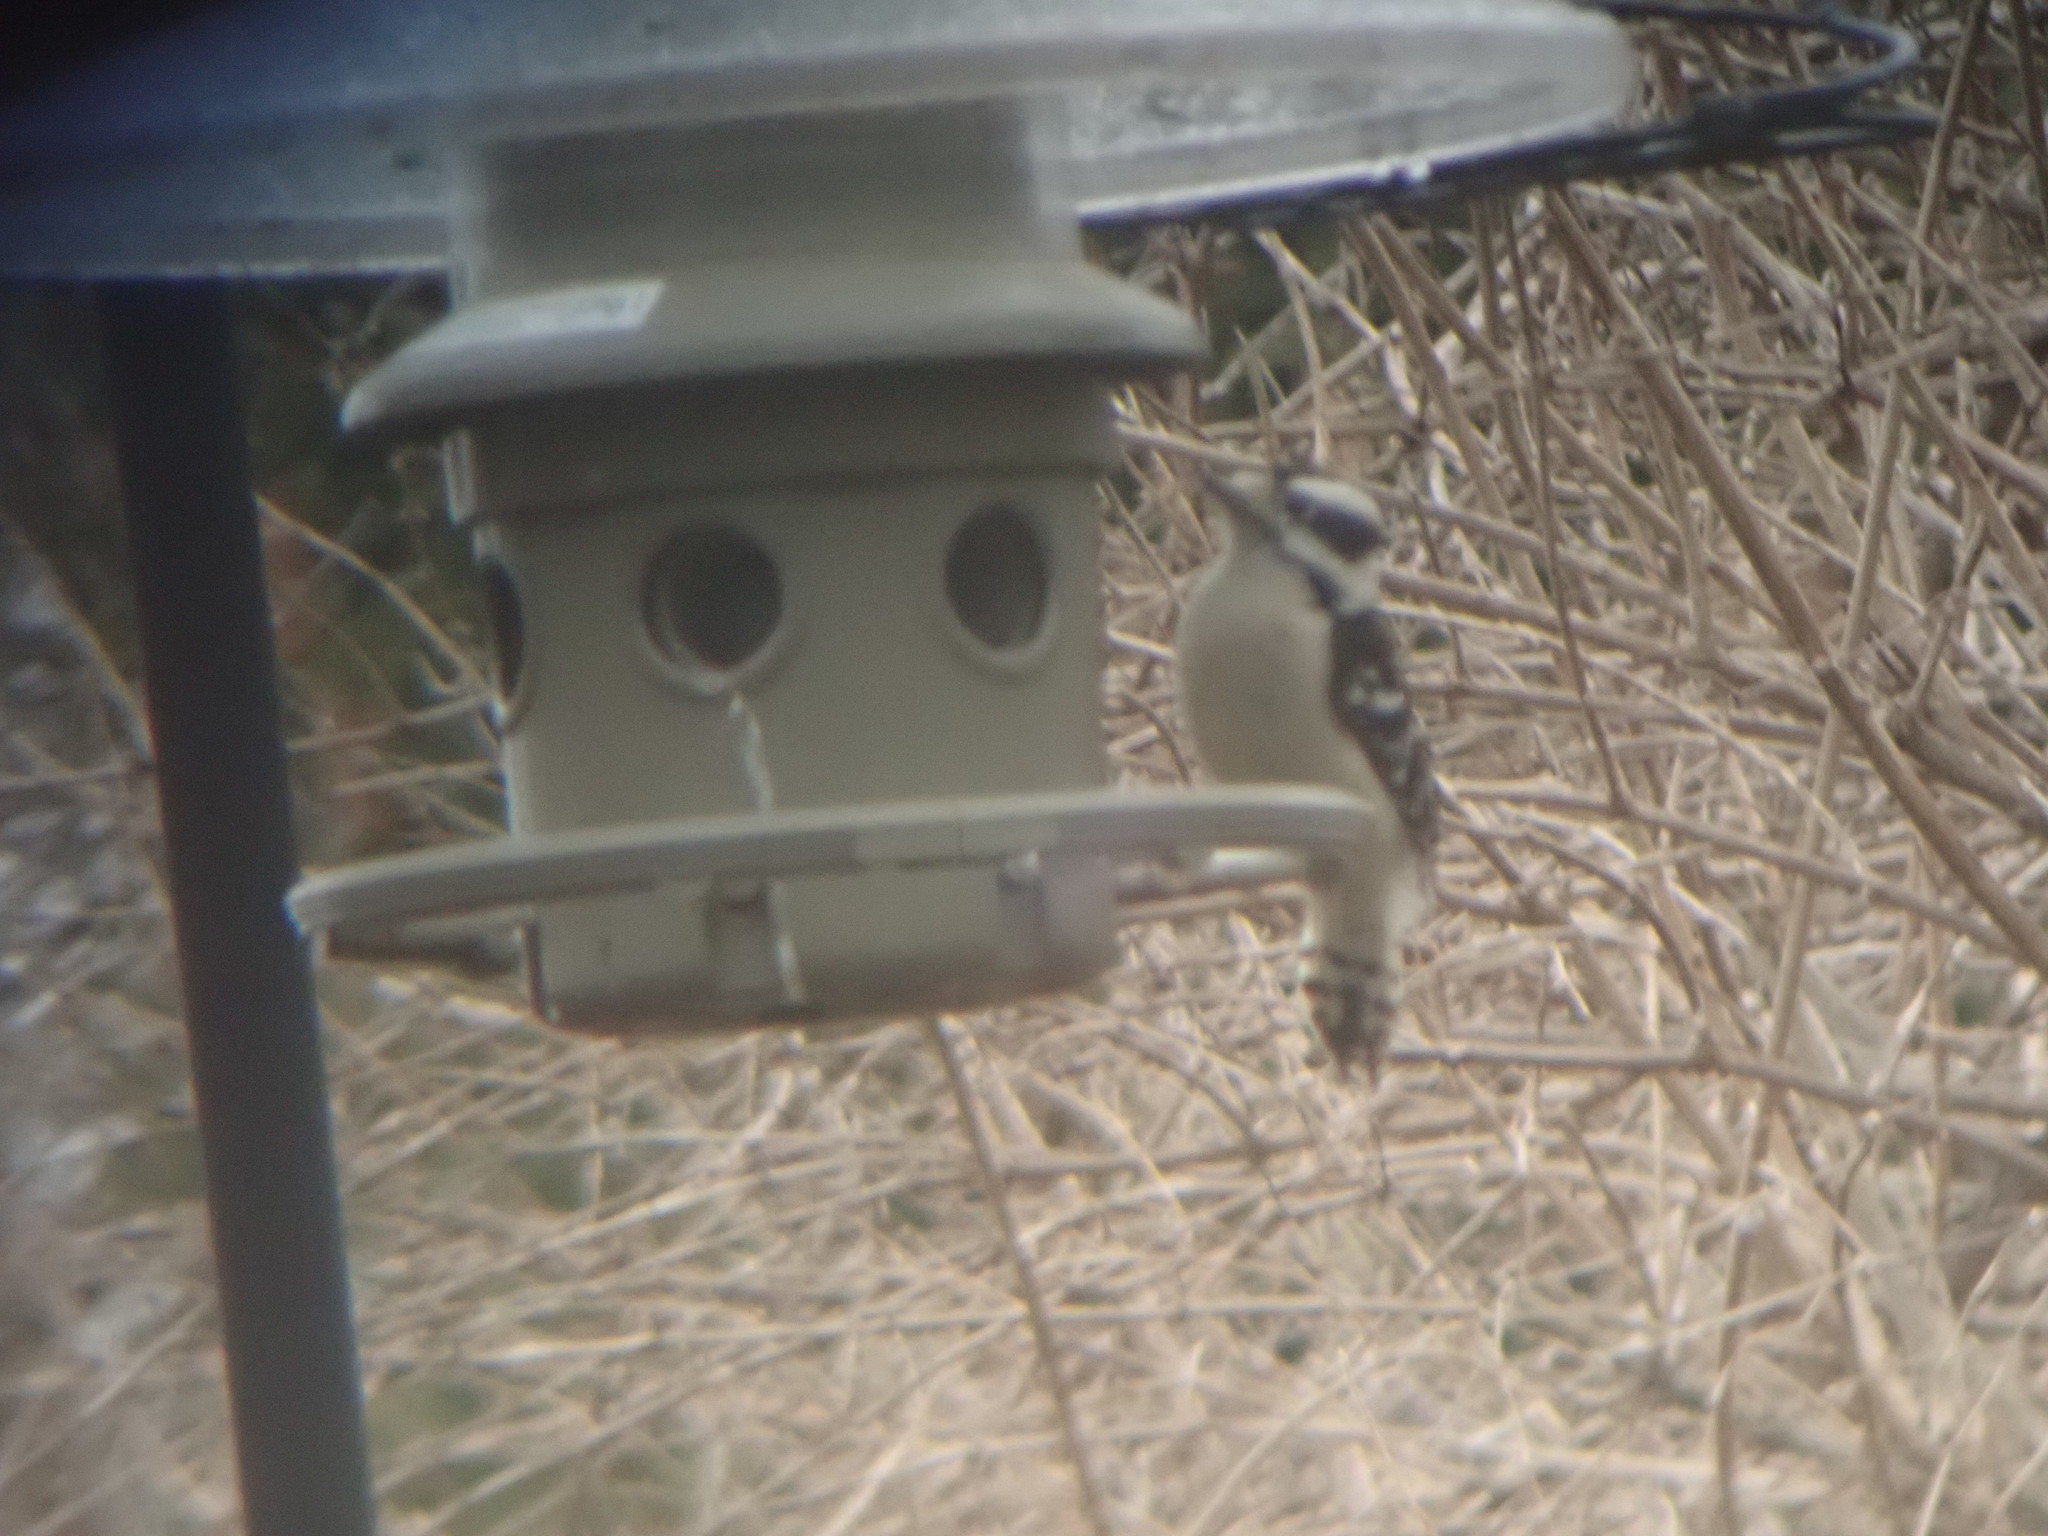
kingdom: Animalia
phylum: Chordata
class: Aves
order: Piciformes
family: Picidae
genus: Dryobates
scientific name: Dryobates pubescens
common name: Downy woodpecker
